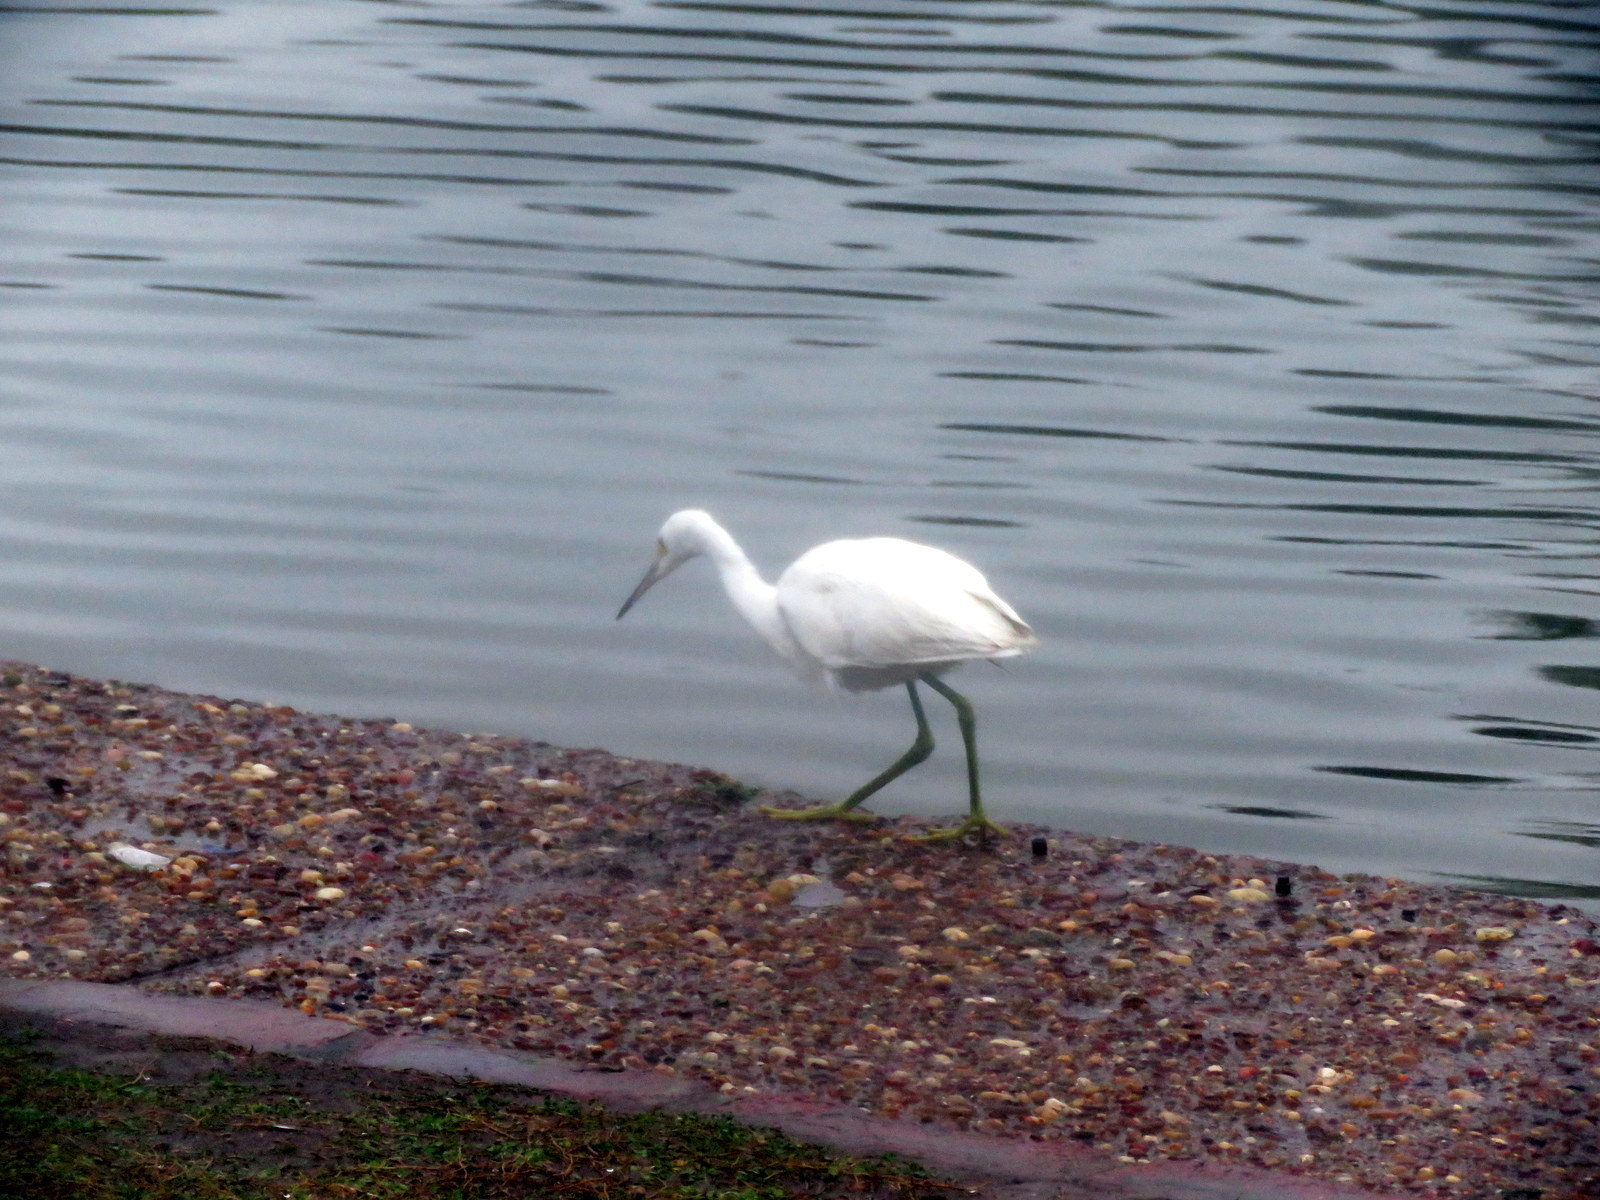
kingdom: Animalia
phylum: Chordata
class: Aves
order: Pelecaniformes
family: Ardeidae
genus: Egretta
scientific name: Egretta thula
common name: Snowy egret
